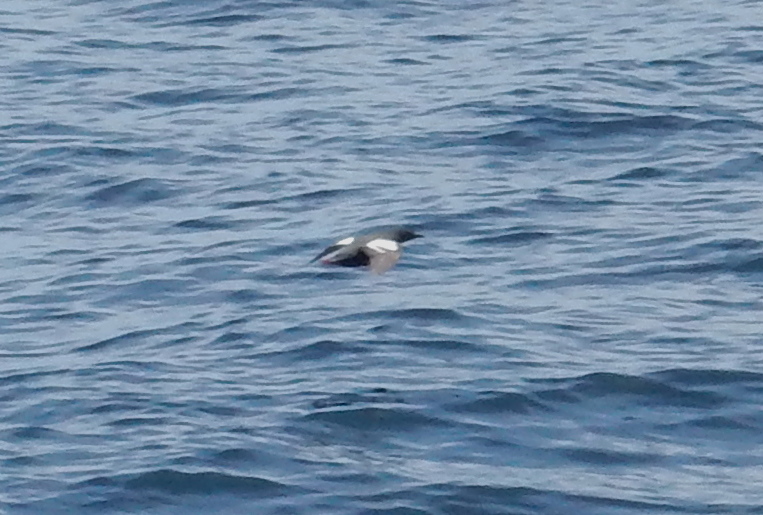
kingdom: Animalia
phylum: Chordata
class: Aves
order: Charadriiformes
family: Alcidae
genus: Cepphus
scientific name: Cepphus columba
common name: Pigeon guillemot
